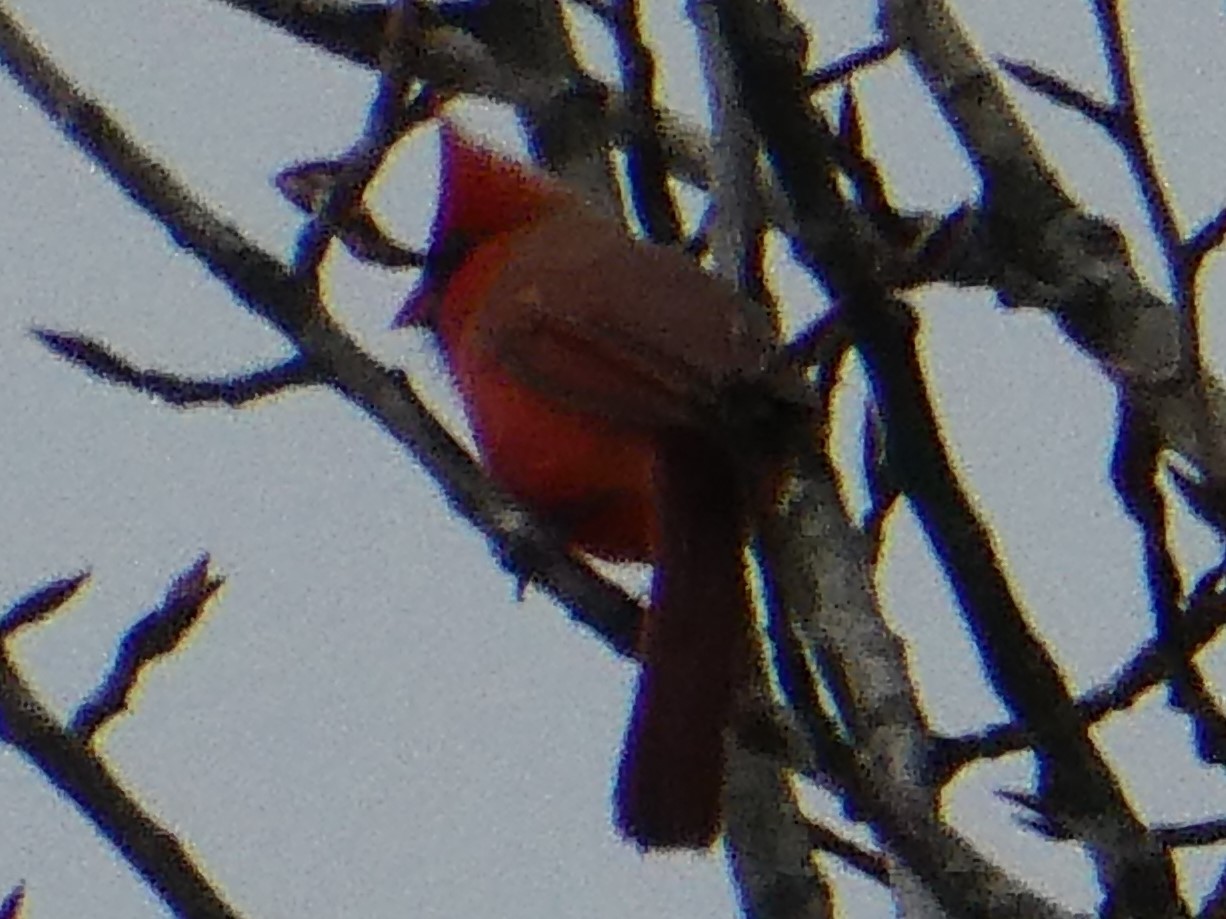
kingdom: Animalia
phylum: Chordata
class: Aves
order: Passeriformes
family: Cardinalidae
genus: Cardinalis
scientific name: Cardinalis cardinalis
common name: Northern cardinal
